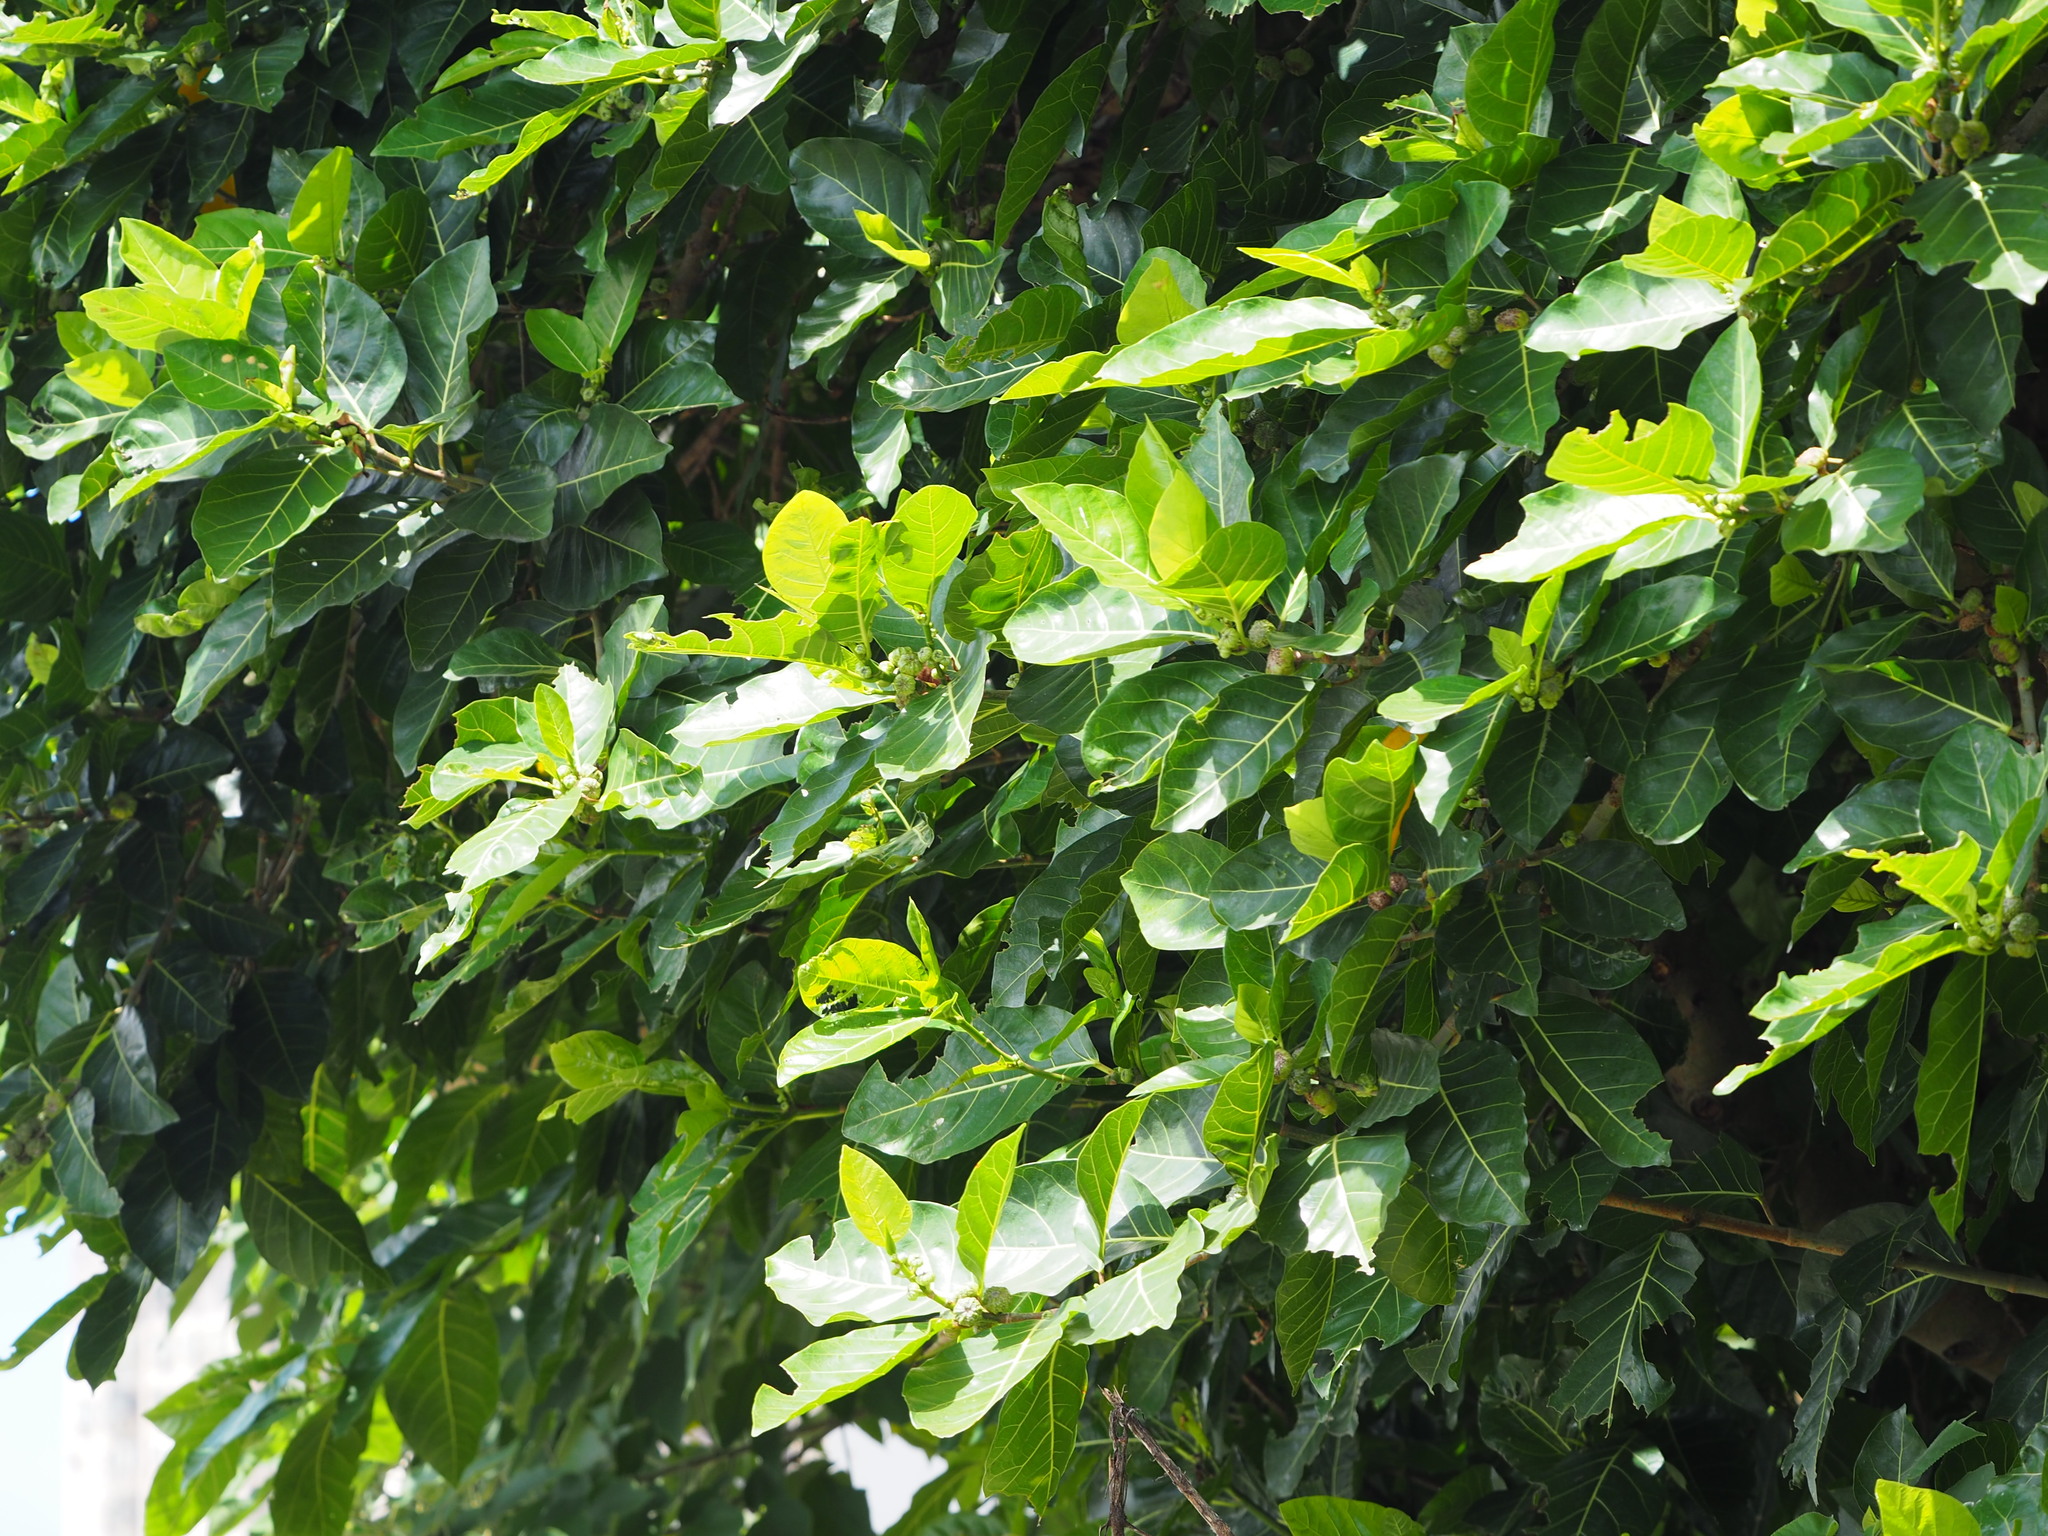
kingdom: Plantae
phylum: Tracheophyta
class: Magnoliopsida
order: Rosales
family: Moraceae
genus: Ficus
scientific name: Ficus septica
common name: Septic fig
